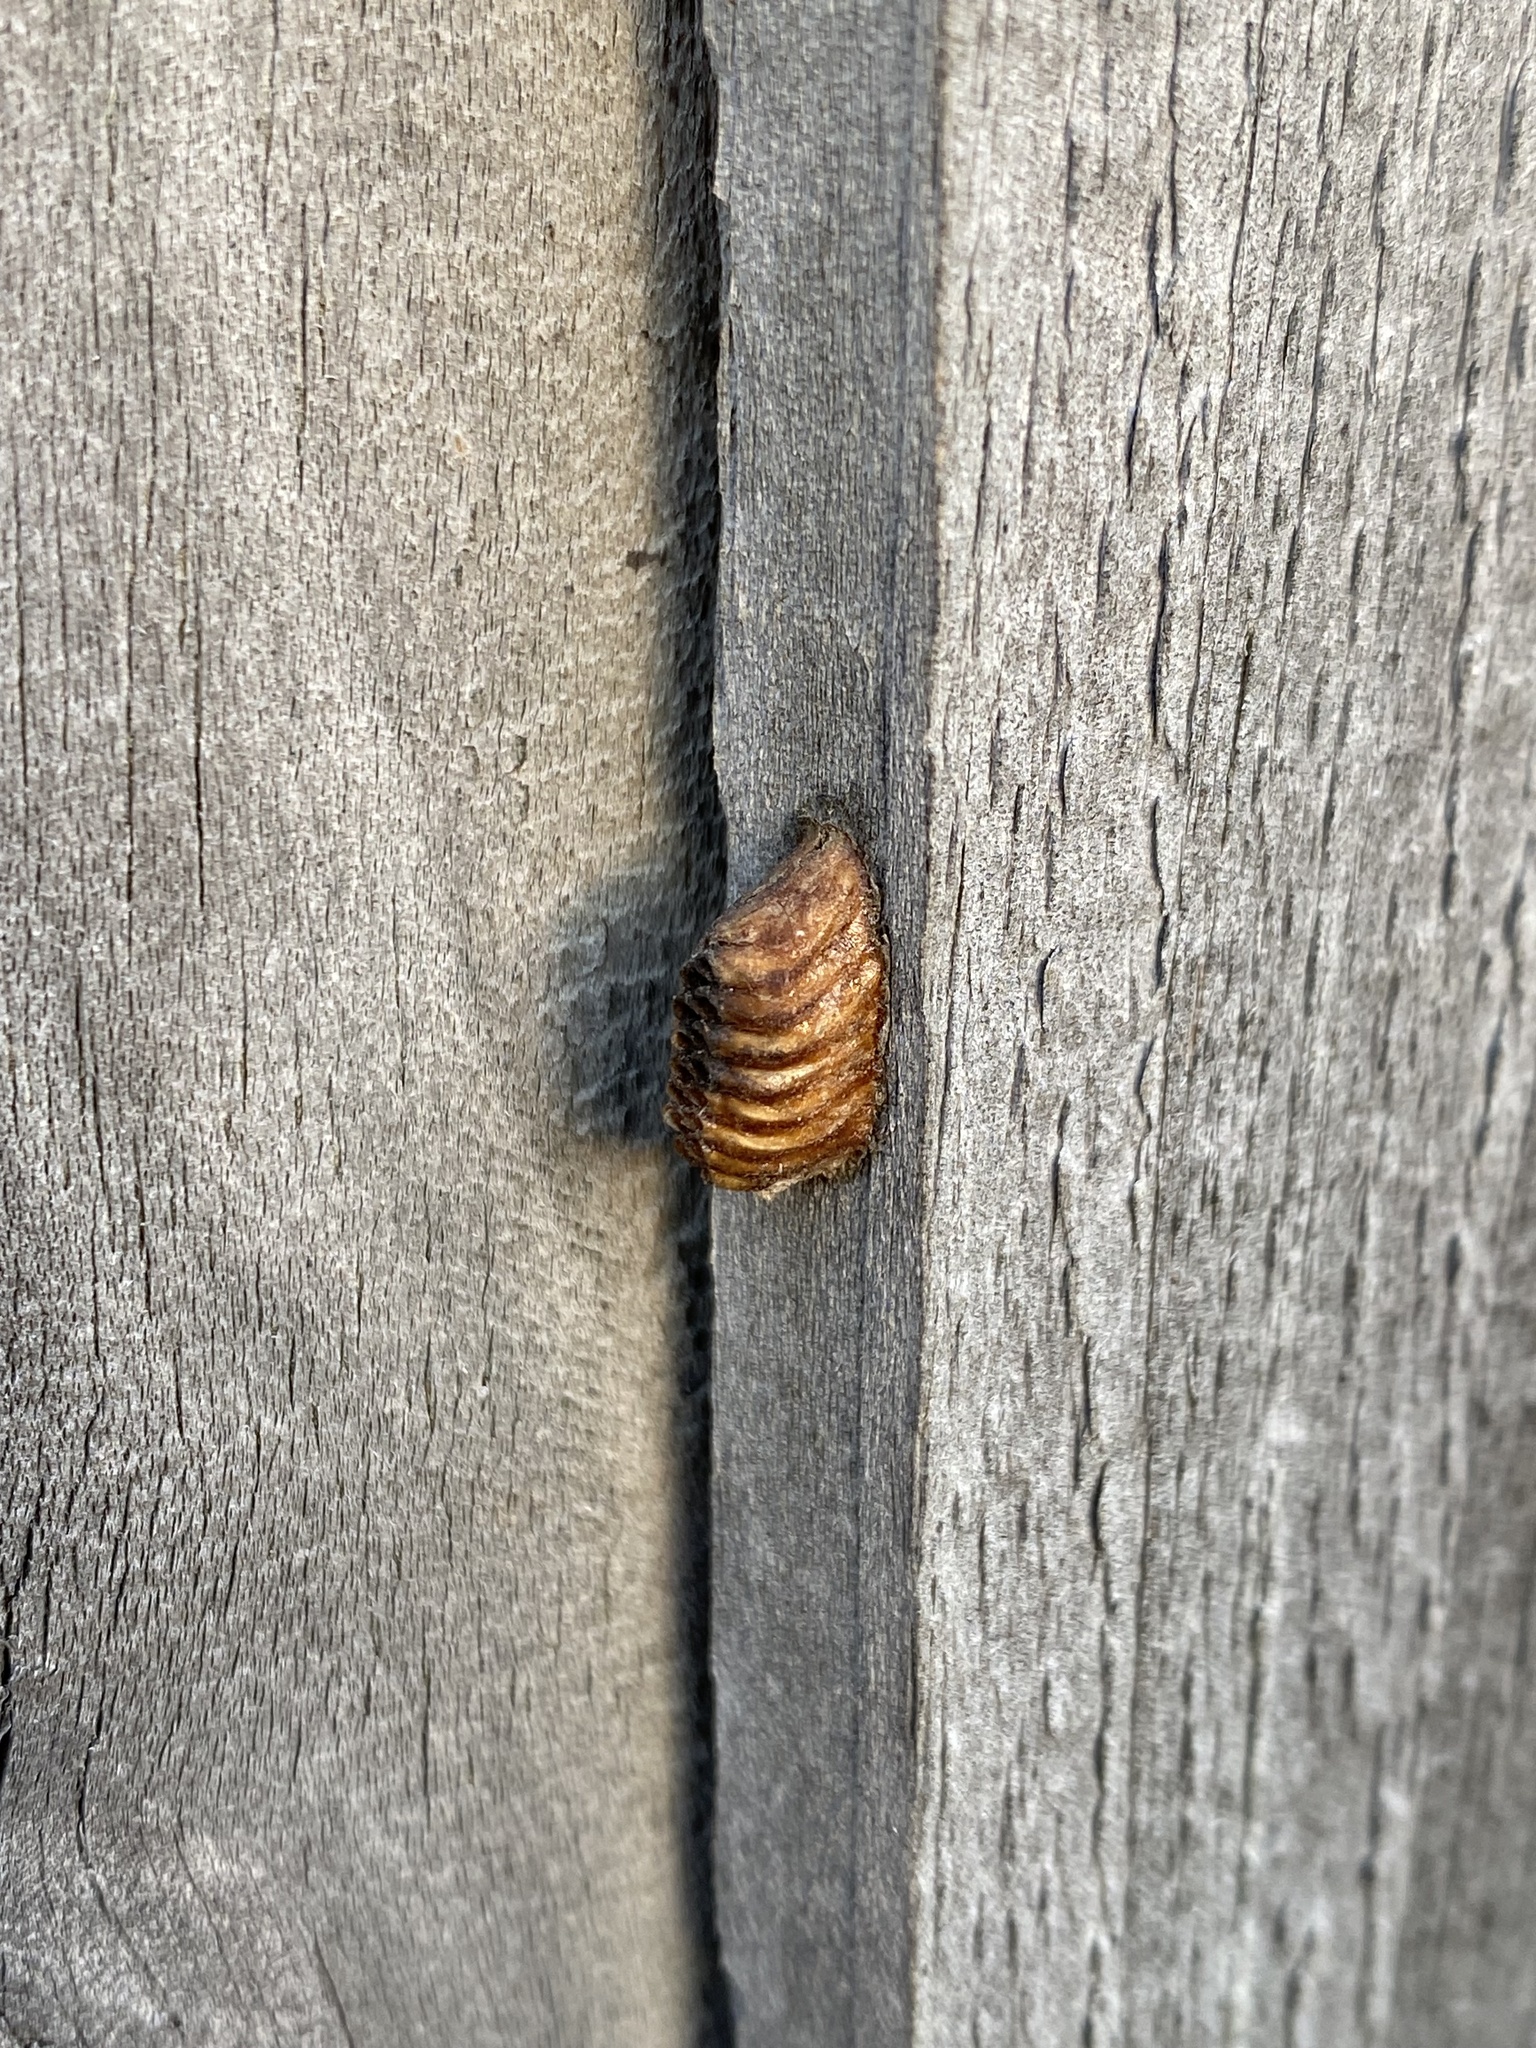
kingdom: Animalia
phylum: Arthropoda
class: Insecta
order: Mantodea
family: Mantidae
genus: Orthodera
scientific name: Orthodera novaezealandiae
